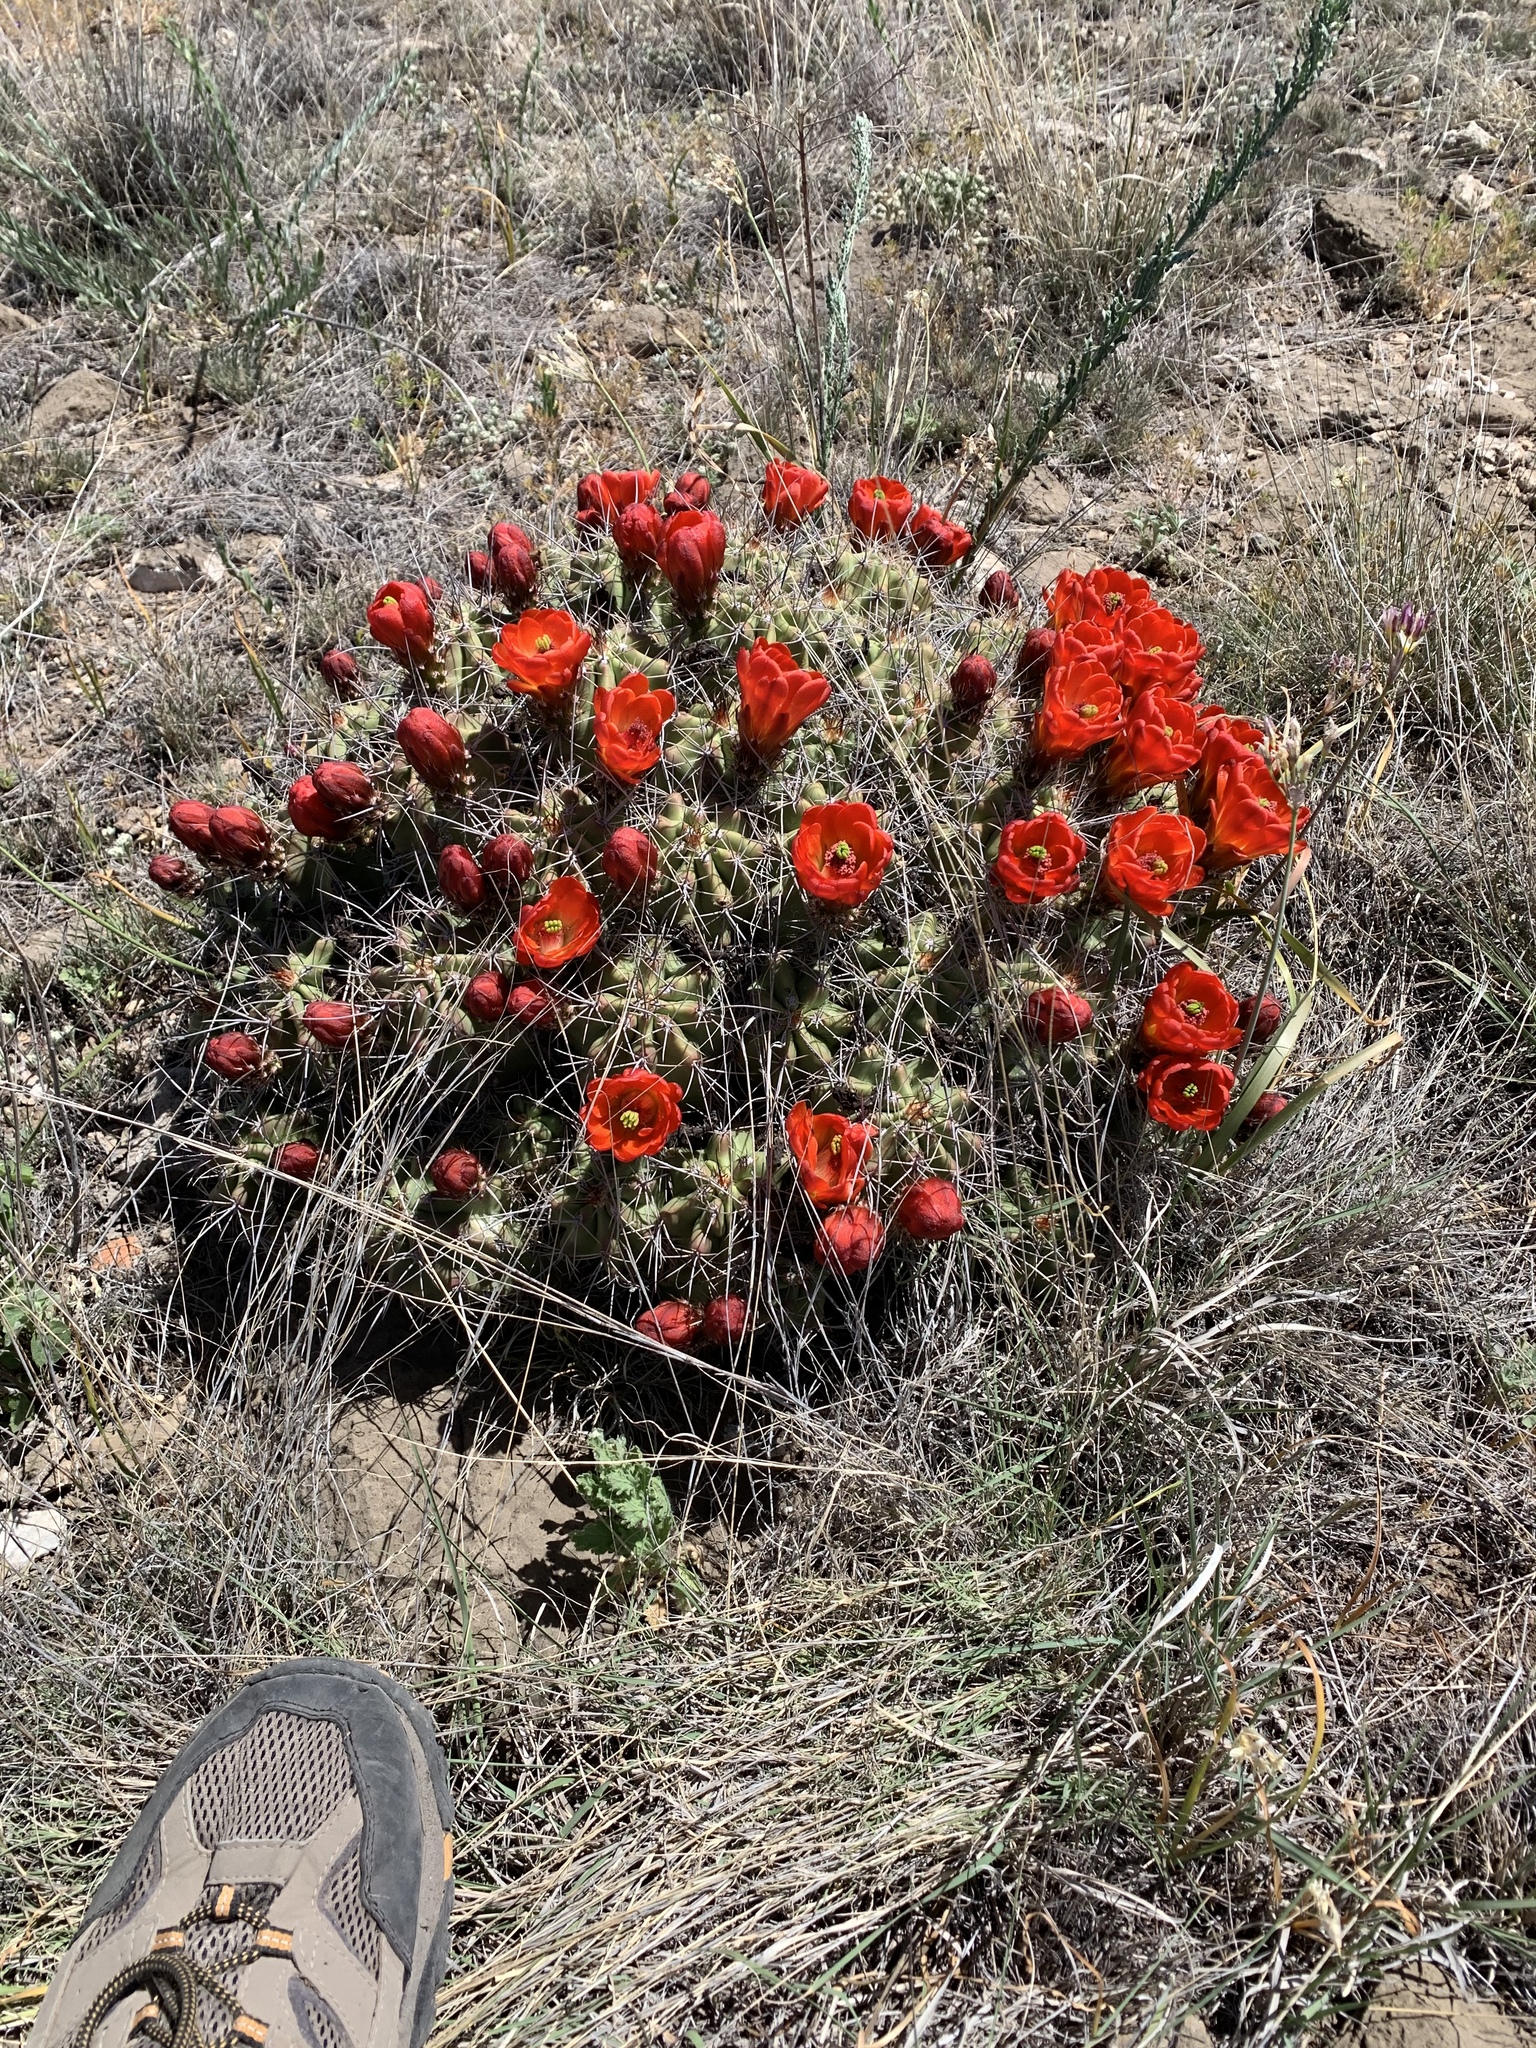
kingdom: Plantae
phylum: Tracheophyta
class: Magnoliopsida
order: Caryophyllales
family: Cactaceae
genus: Echinocereus
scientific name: Echinocereus coccineus
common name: Scarlet hedgehog cactus
